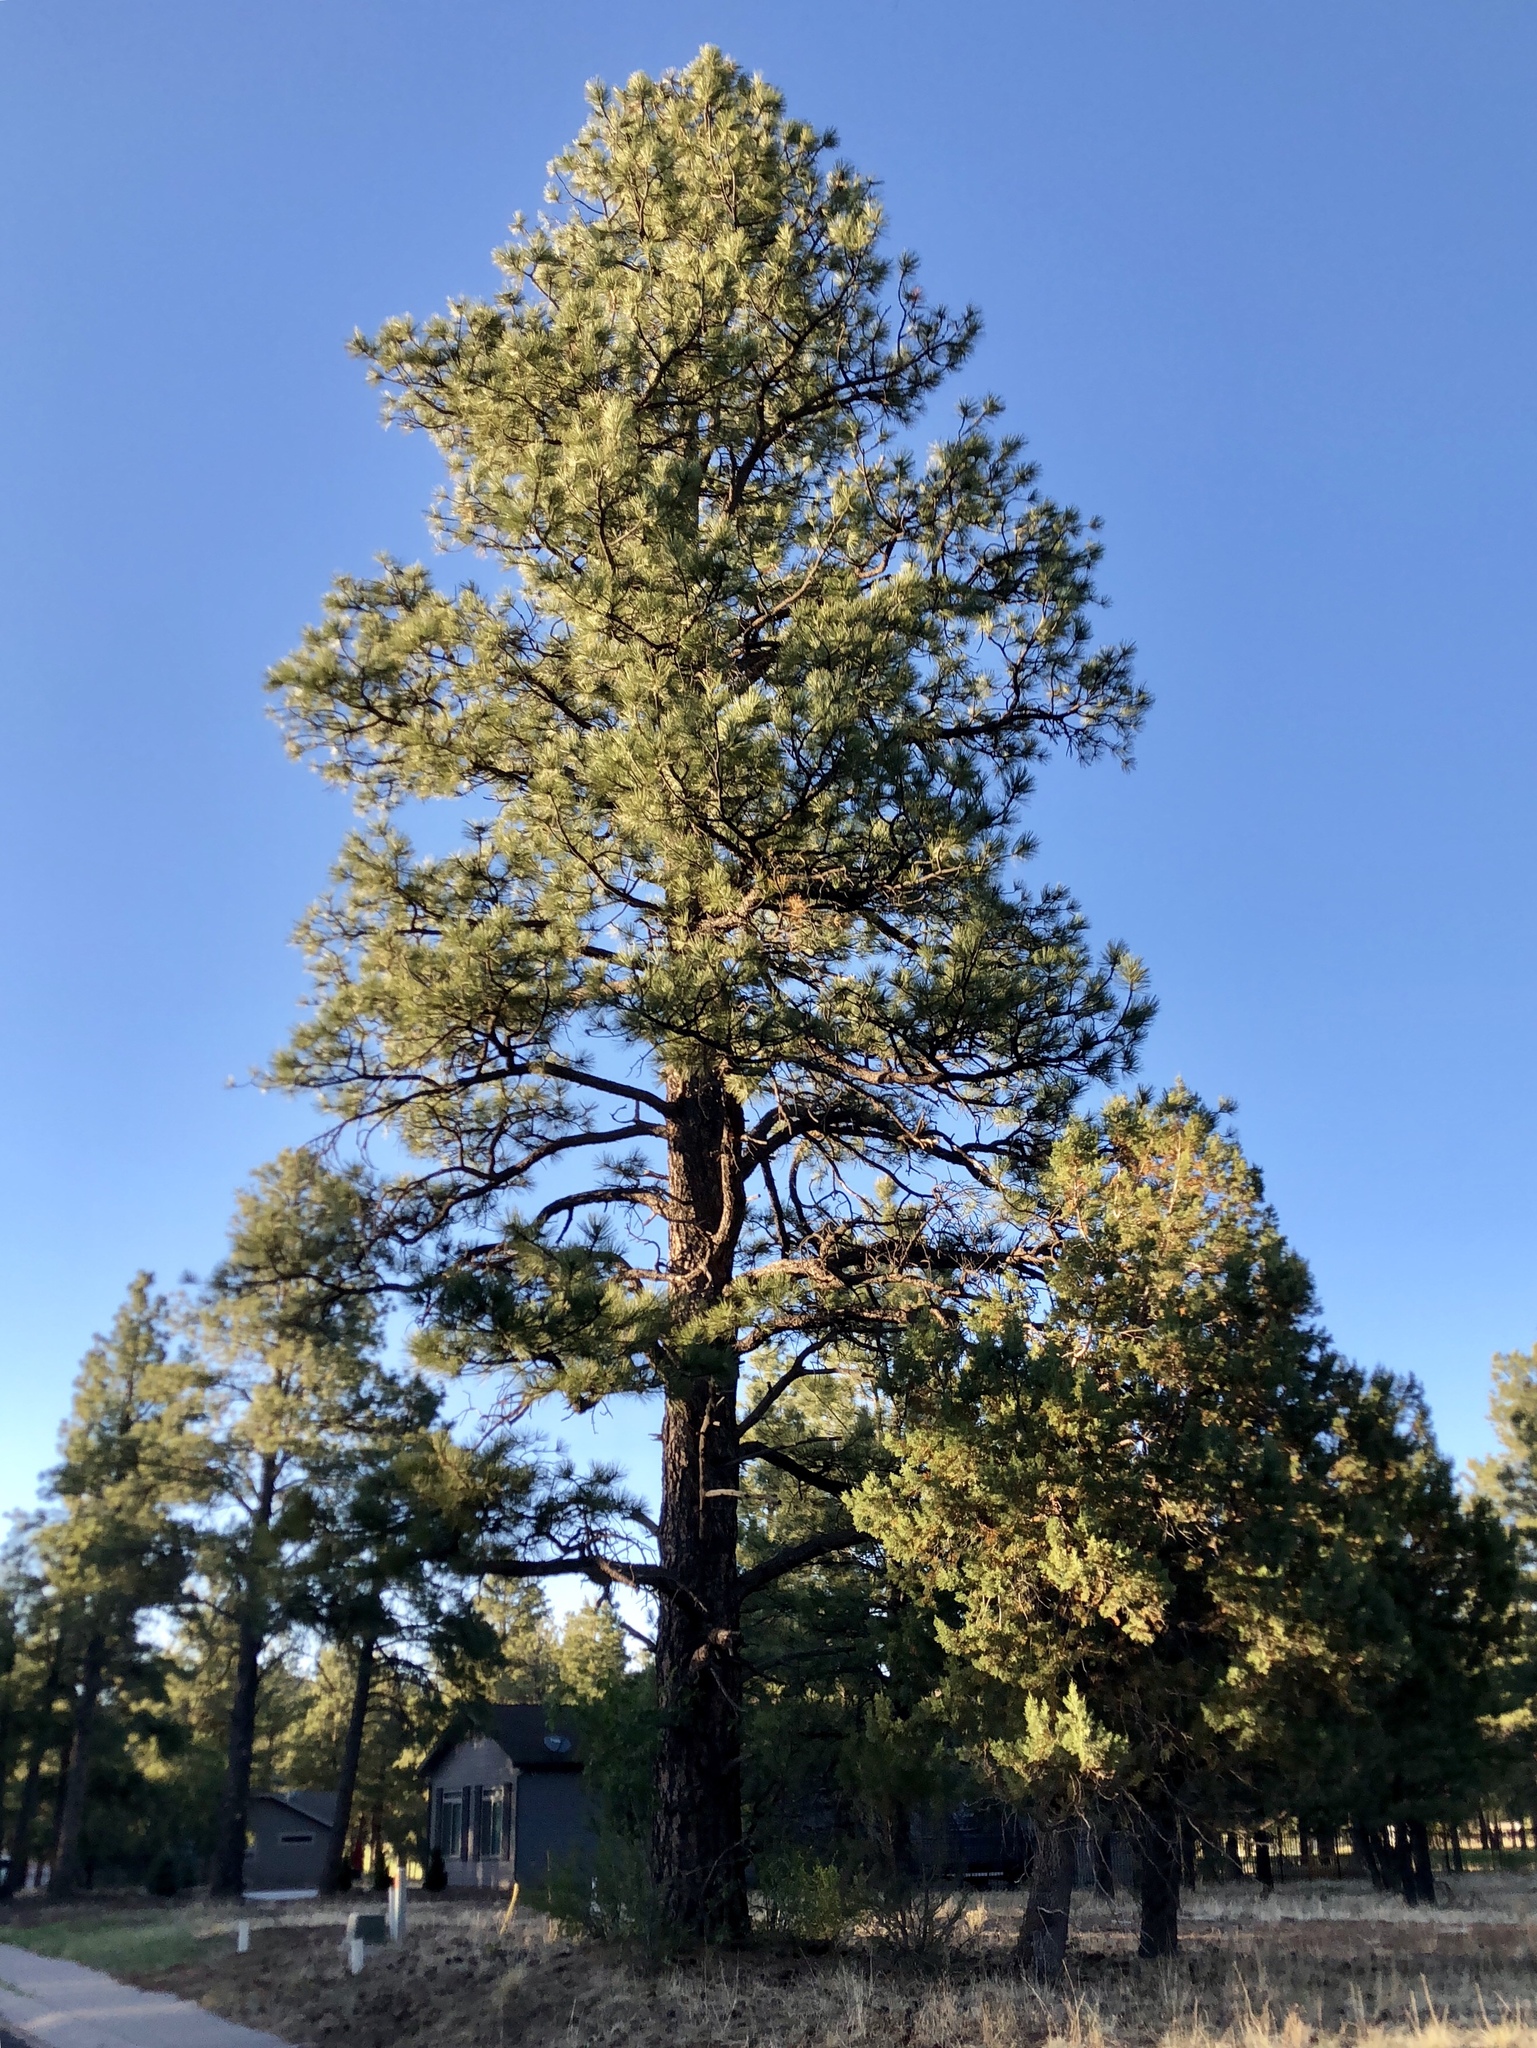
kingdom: Plantae
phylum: Tracheophyta
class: Pinopsida
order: Pinales
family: Pinaceae
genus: Pinus
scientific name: Pinus ponderosa
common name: Western yellow-pine
